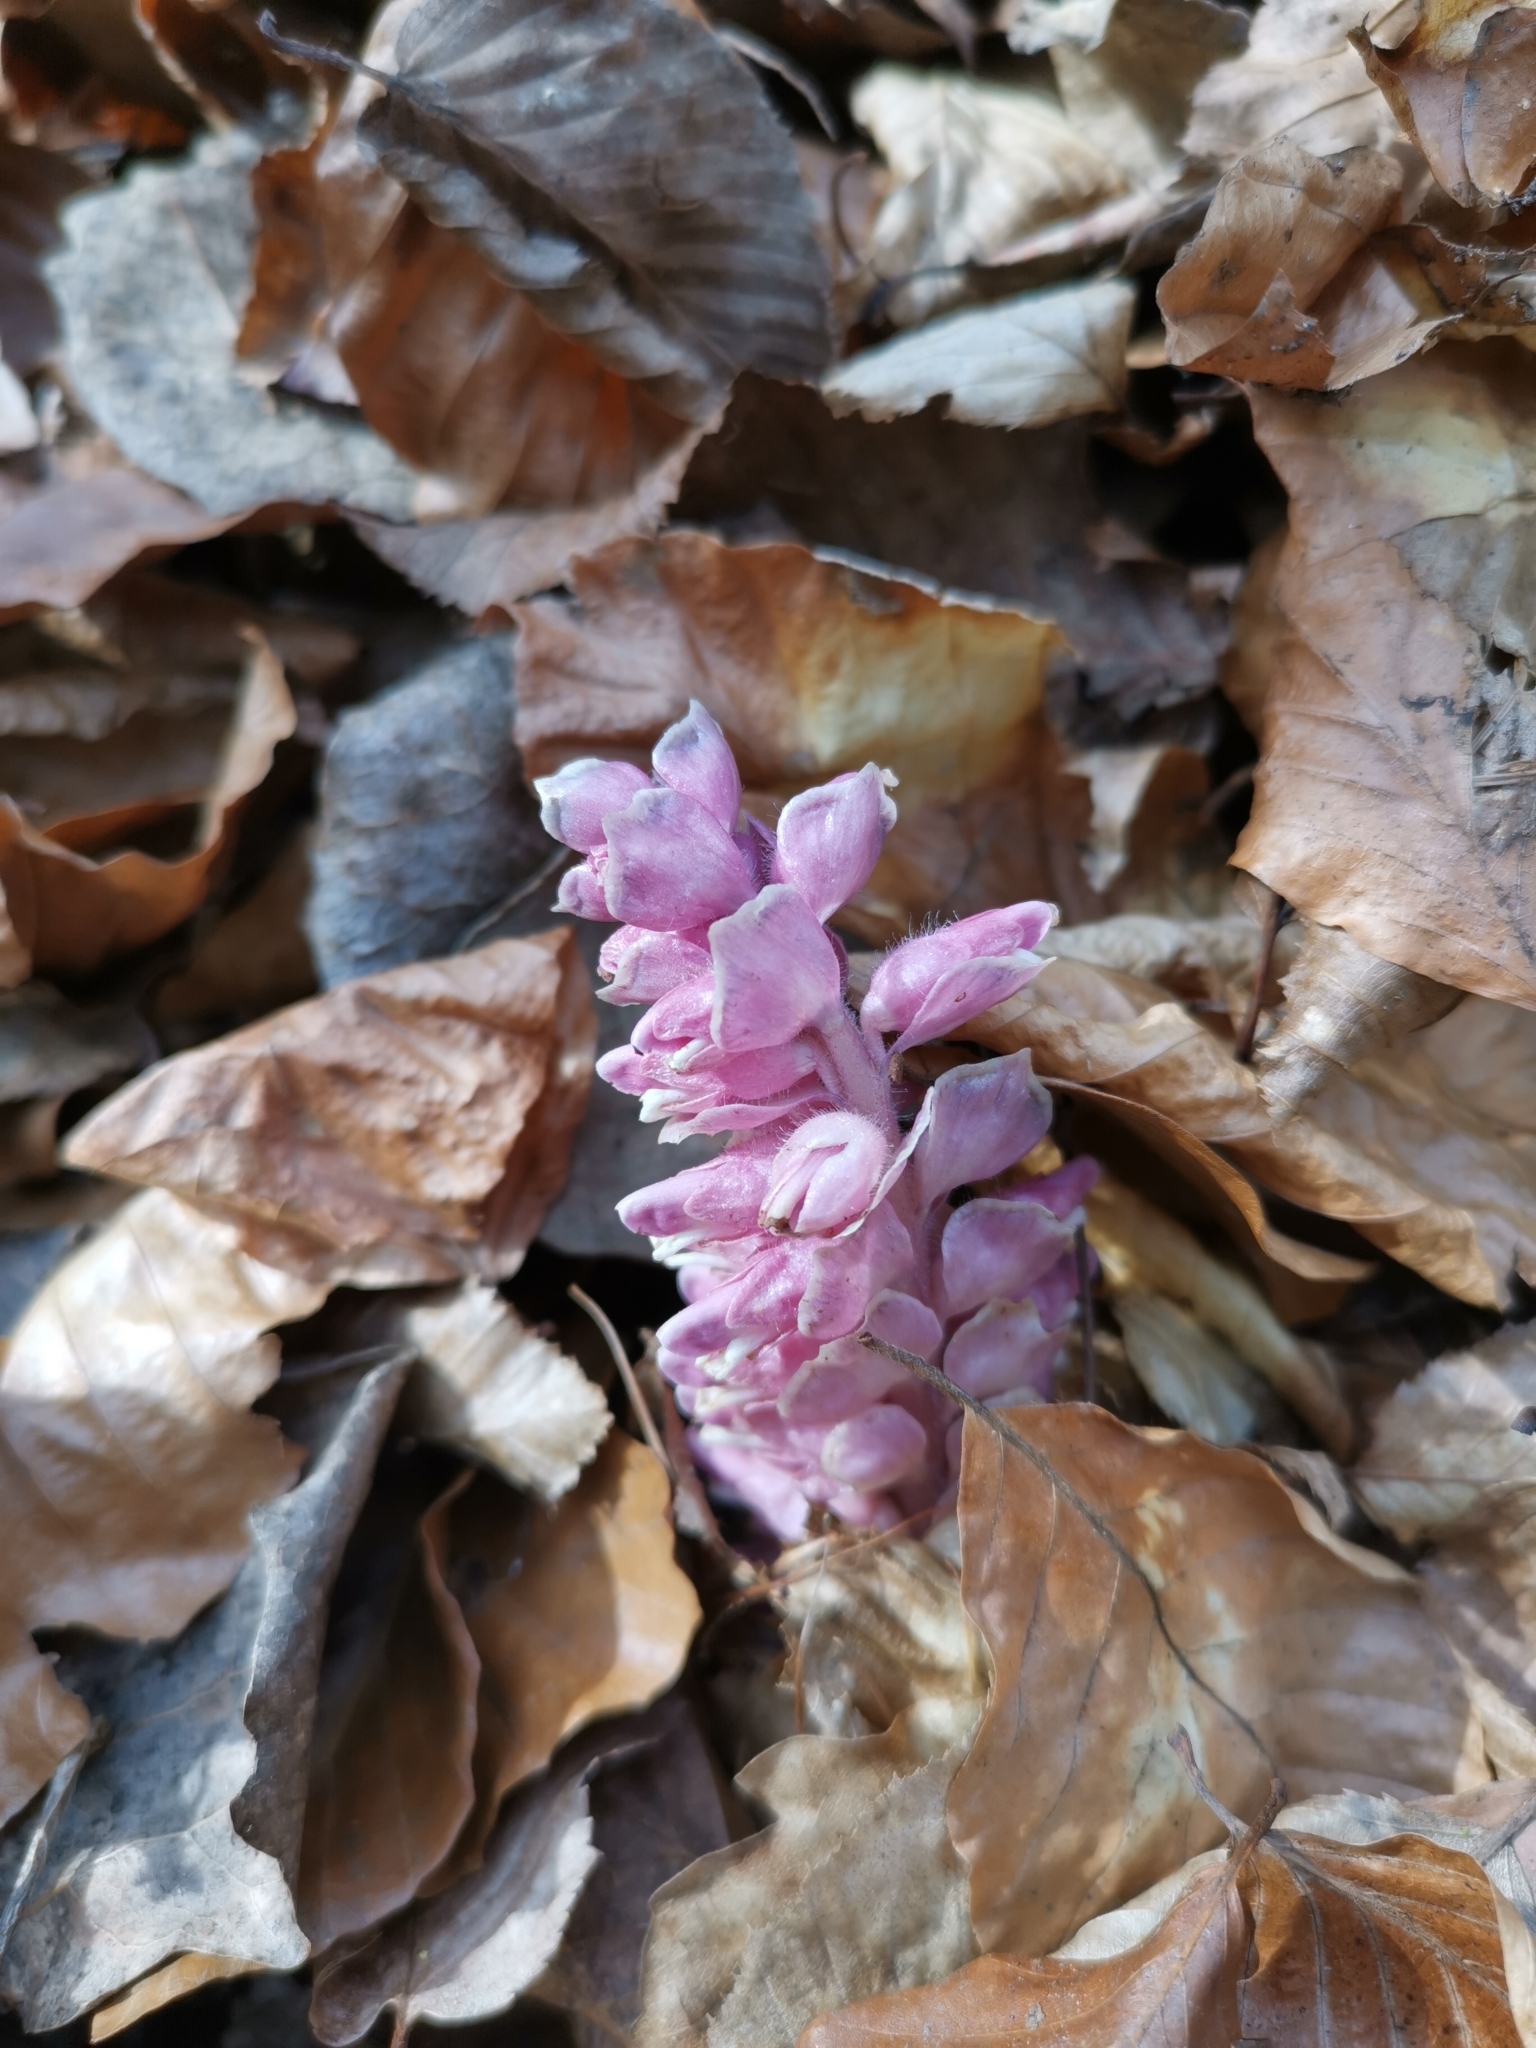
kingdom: Plantae
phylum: Tracheophyta
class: Magnoliopsida
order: Lamiales
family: Orobanchaceae
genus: Lathraea
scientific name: Lathraea squamaria
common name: Toothwort
